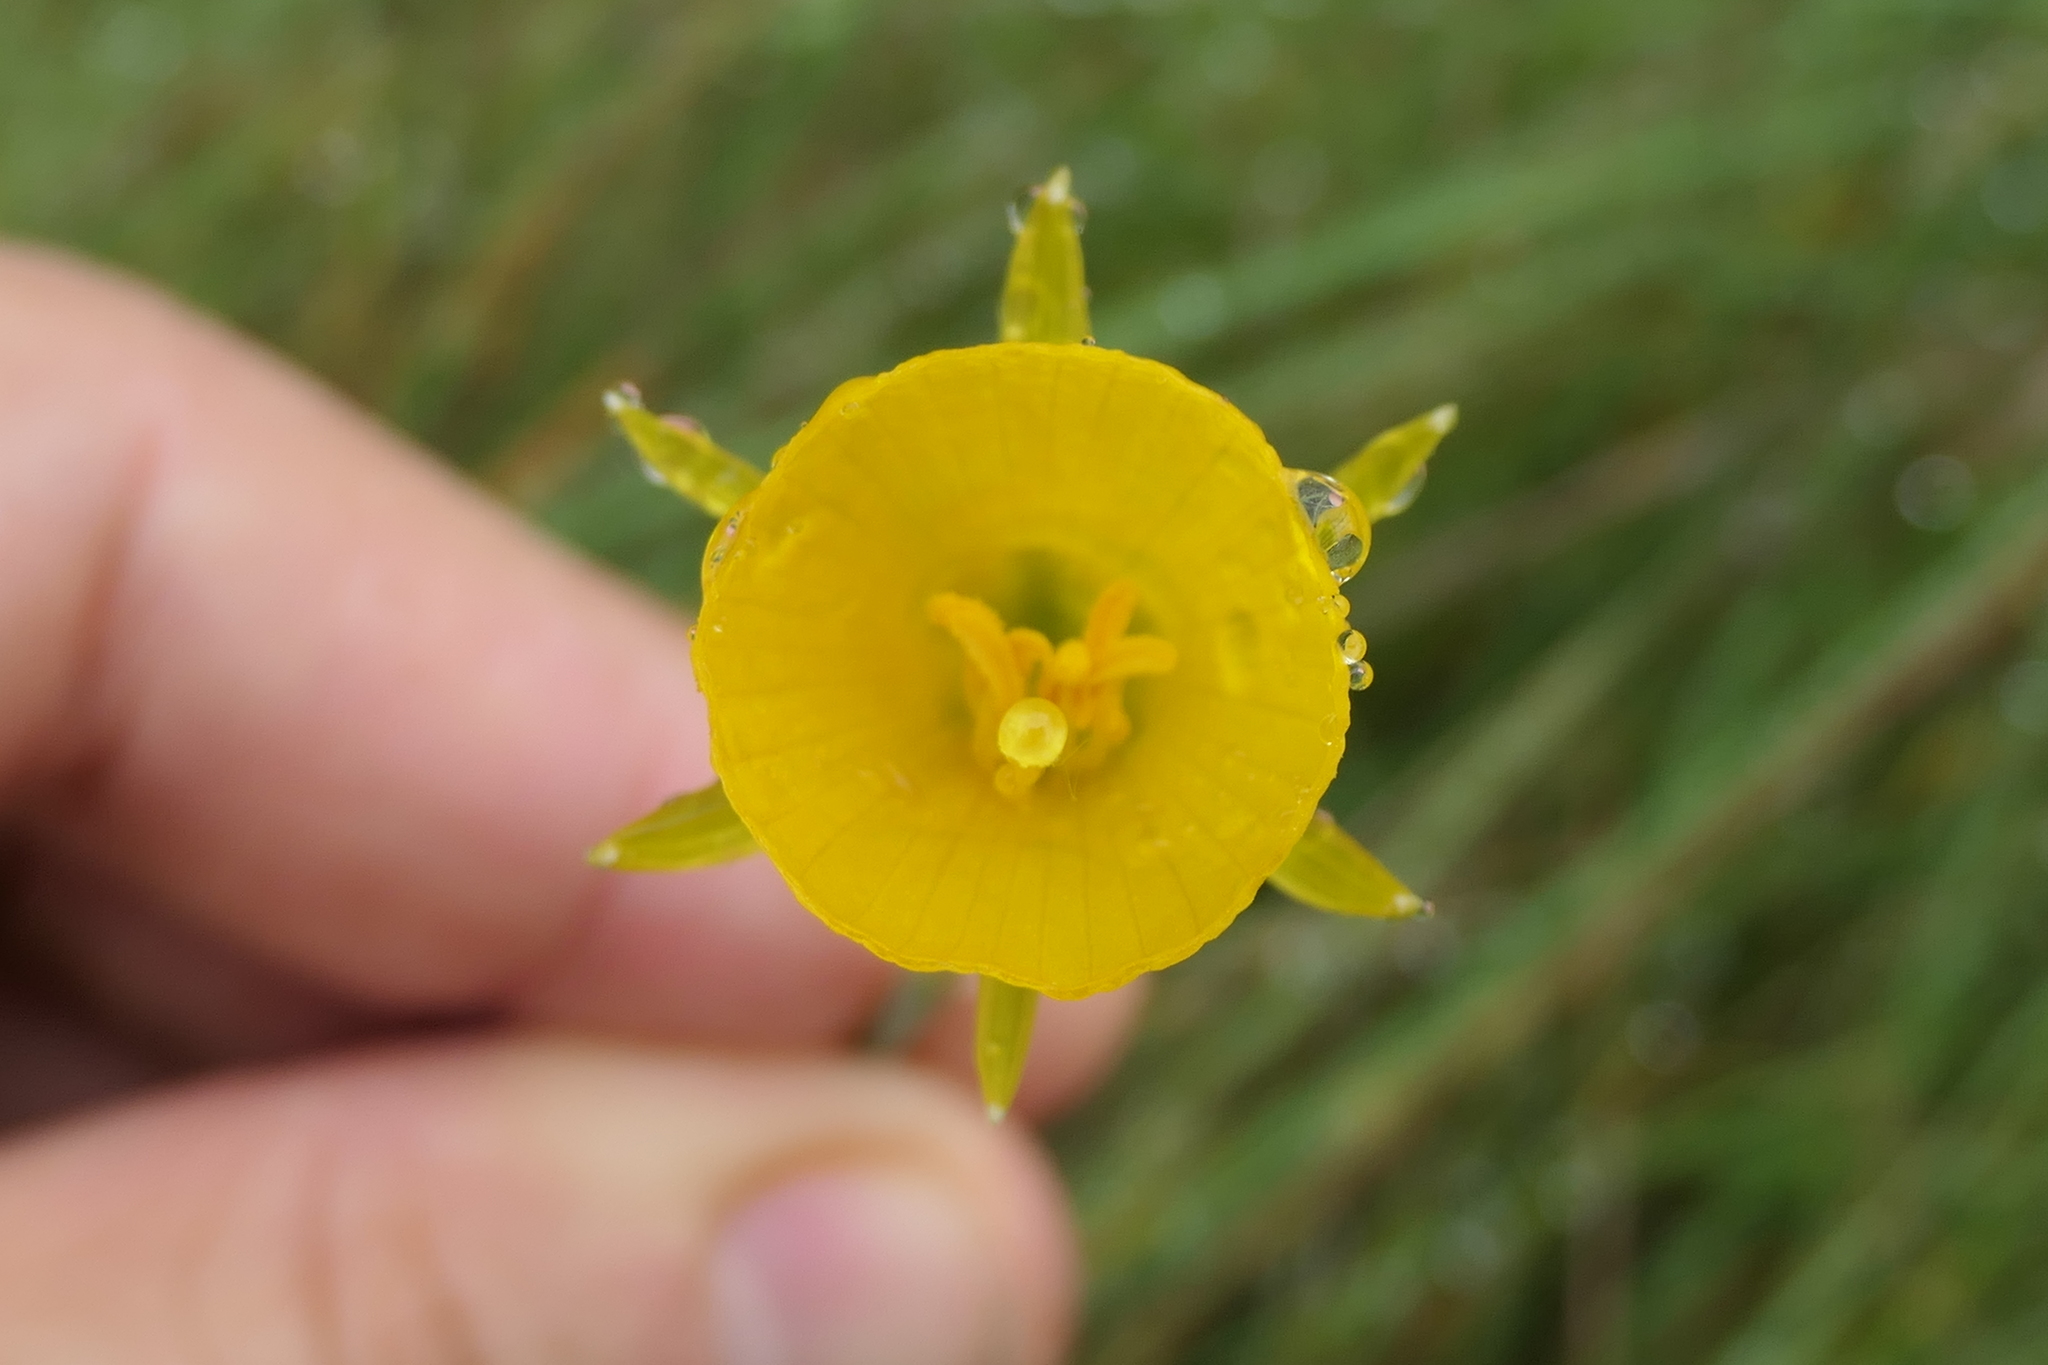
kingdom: Plantae
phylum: Tracheophyta
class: Liliopsida
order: Asparagales
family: Amaryllidaceae
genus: Narcissus
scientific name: Narcissus bulbocodium
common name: Hoop-petticoat daffodil
